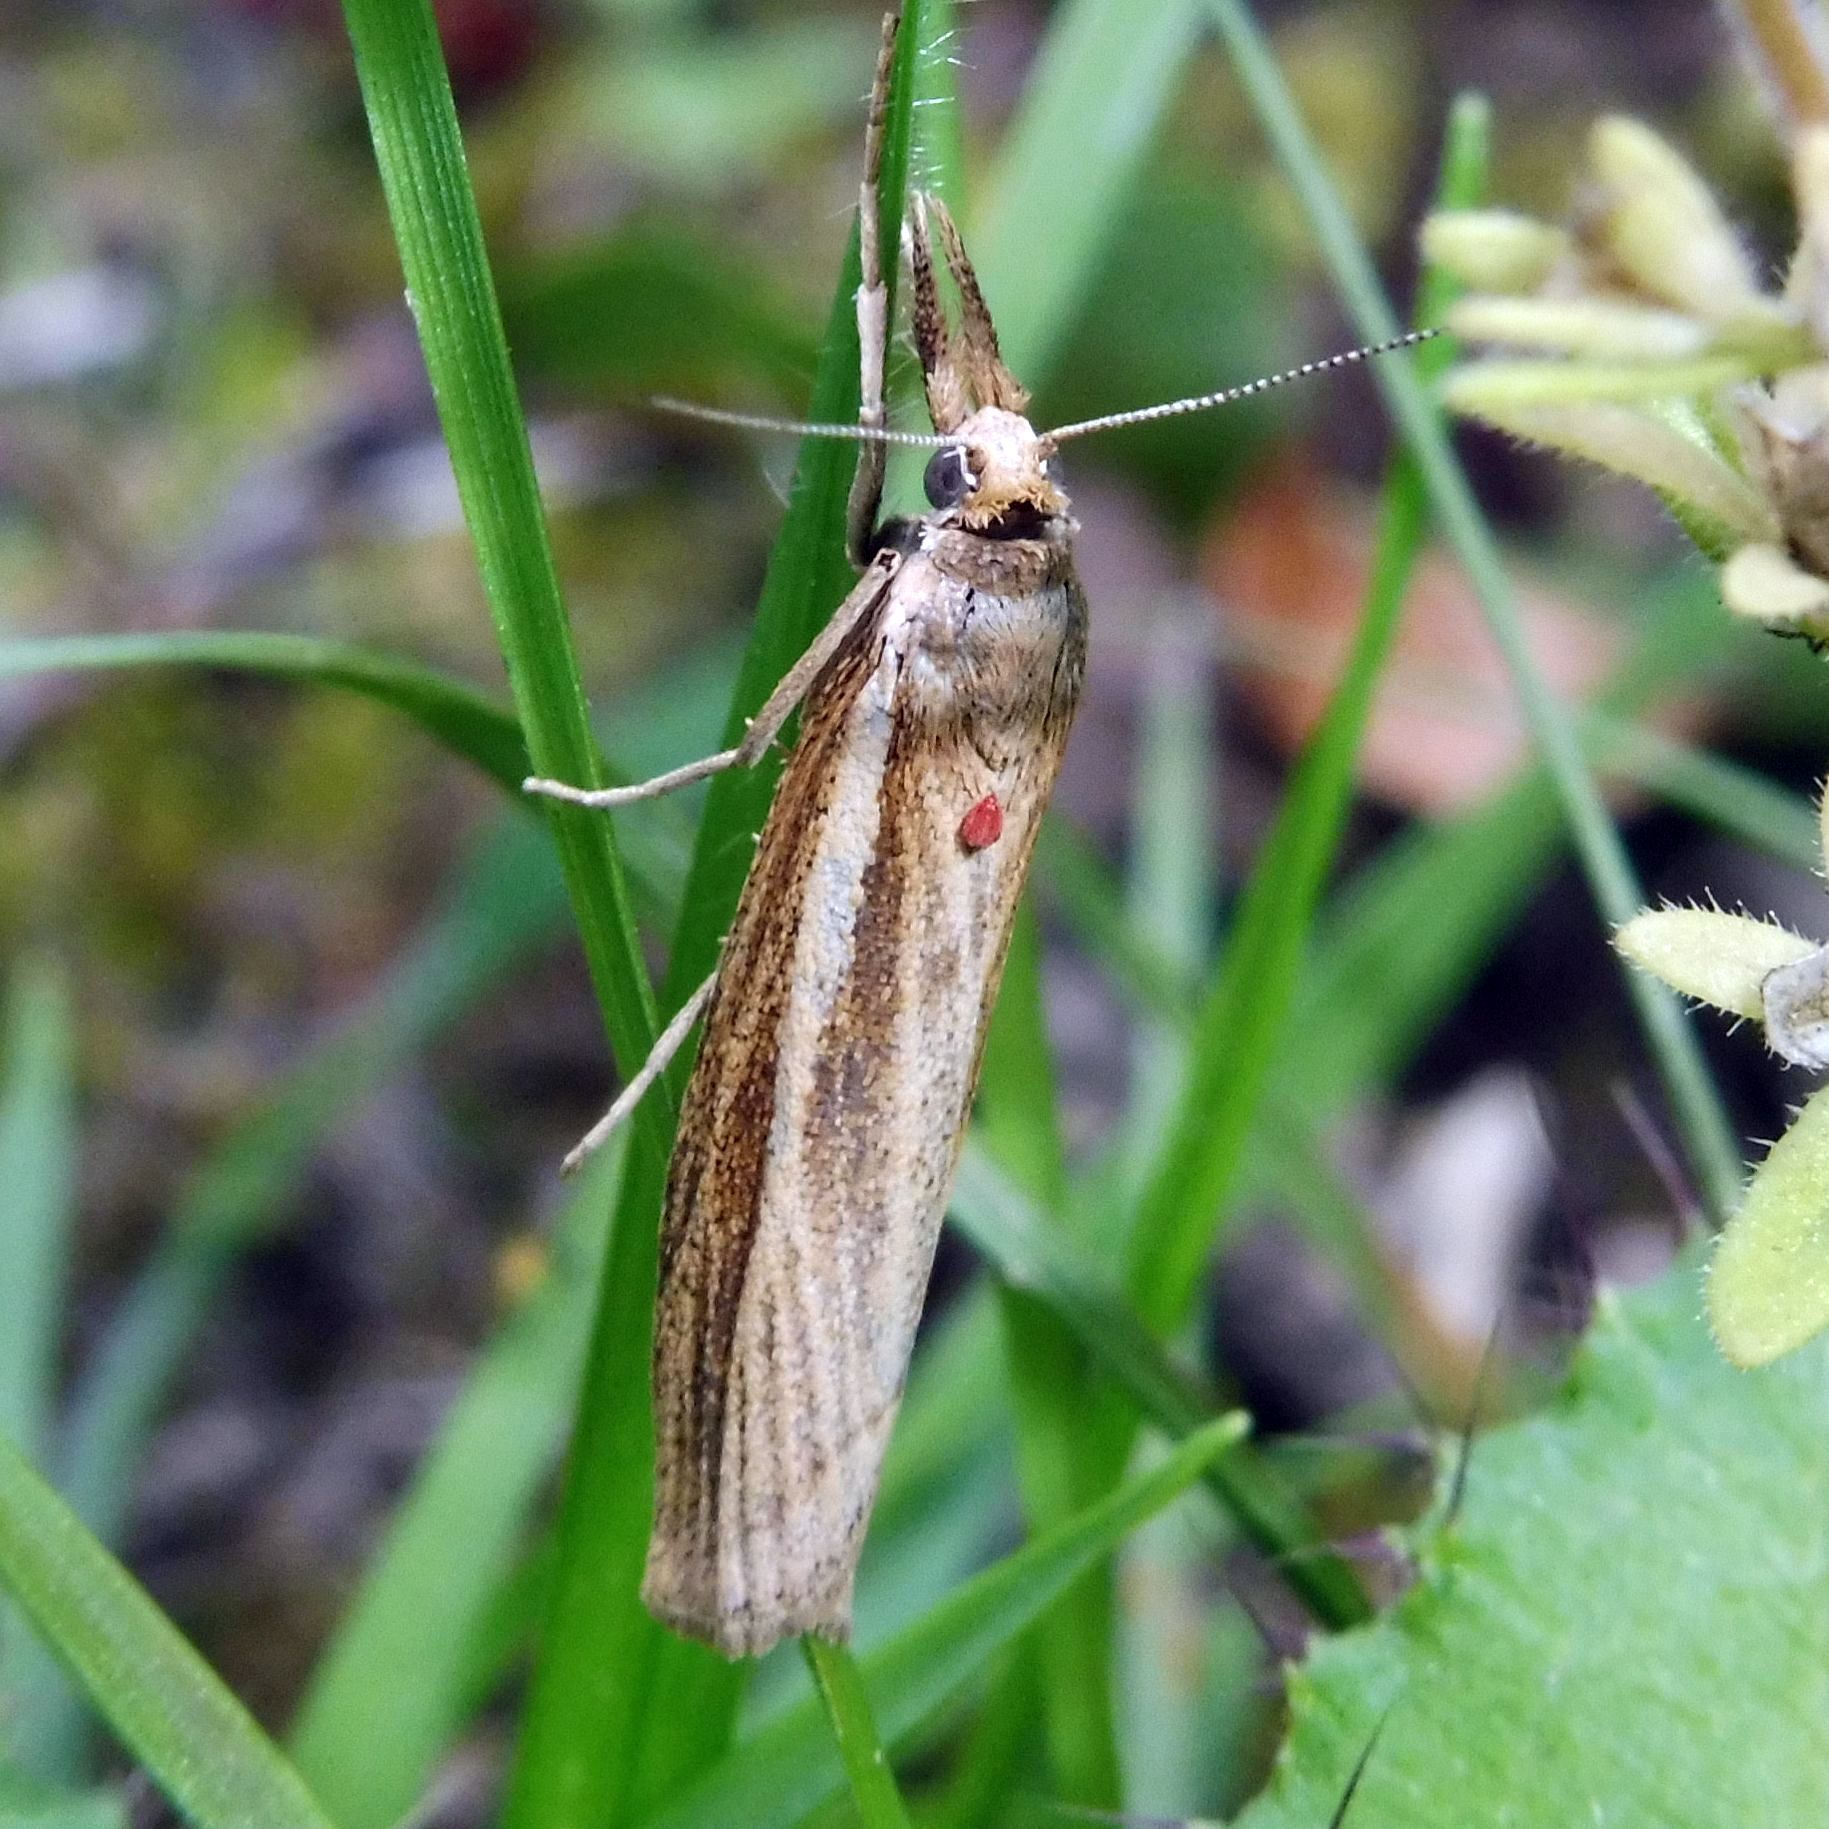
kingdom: Animalia
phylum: Arthropoda
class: Insecta
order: Lepidoptera
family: Crambidae
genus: Agriphila
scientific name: Agriphila tristellus
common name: Common grass-veneer
